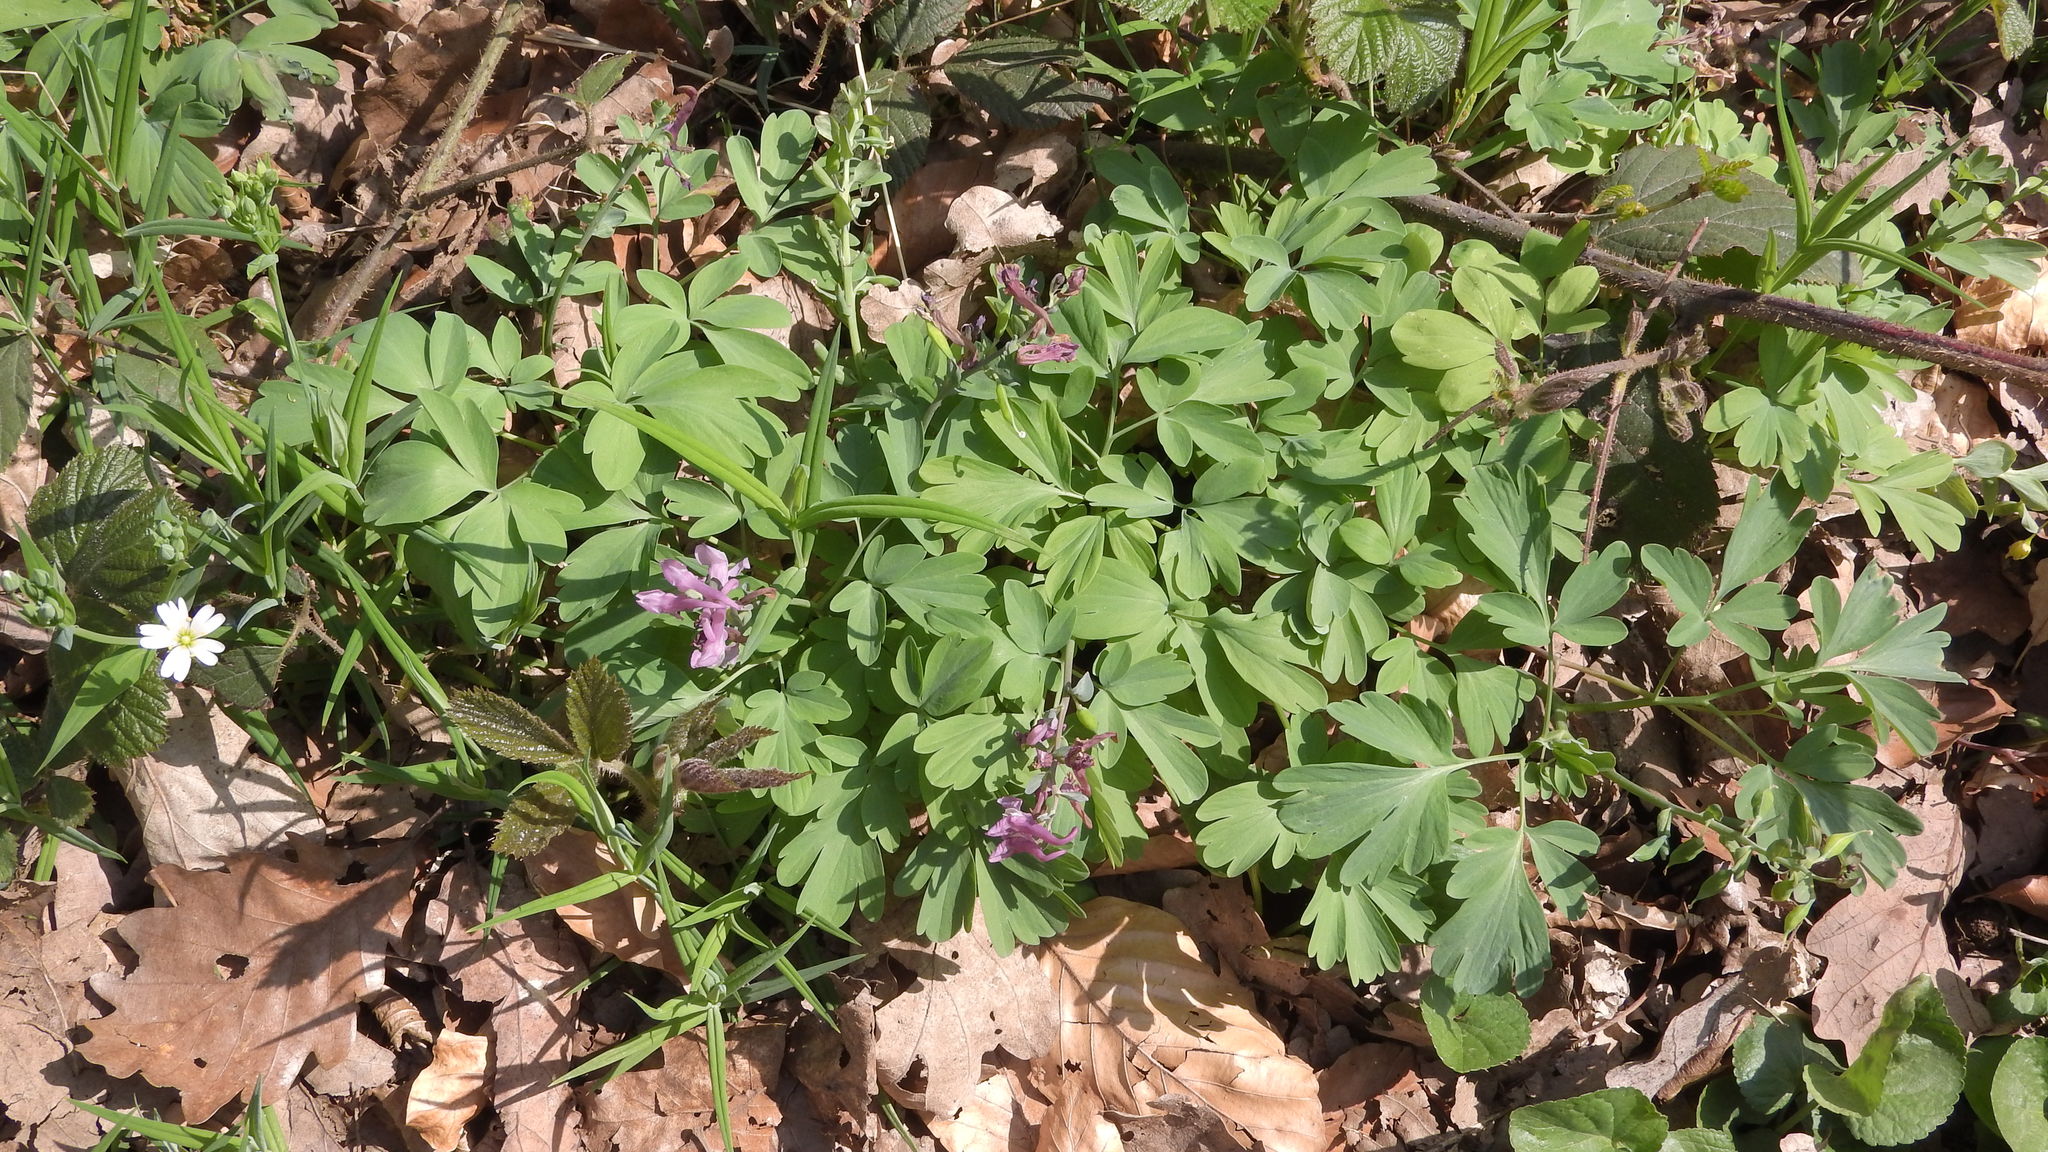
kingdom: Plantae
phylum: Tracheophyta
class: Magnoliopsida
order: Ranunculales
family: Papaveraceae
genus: Corydalis
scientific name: Corydalis cava
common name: Hollowroot
